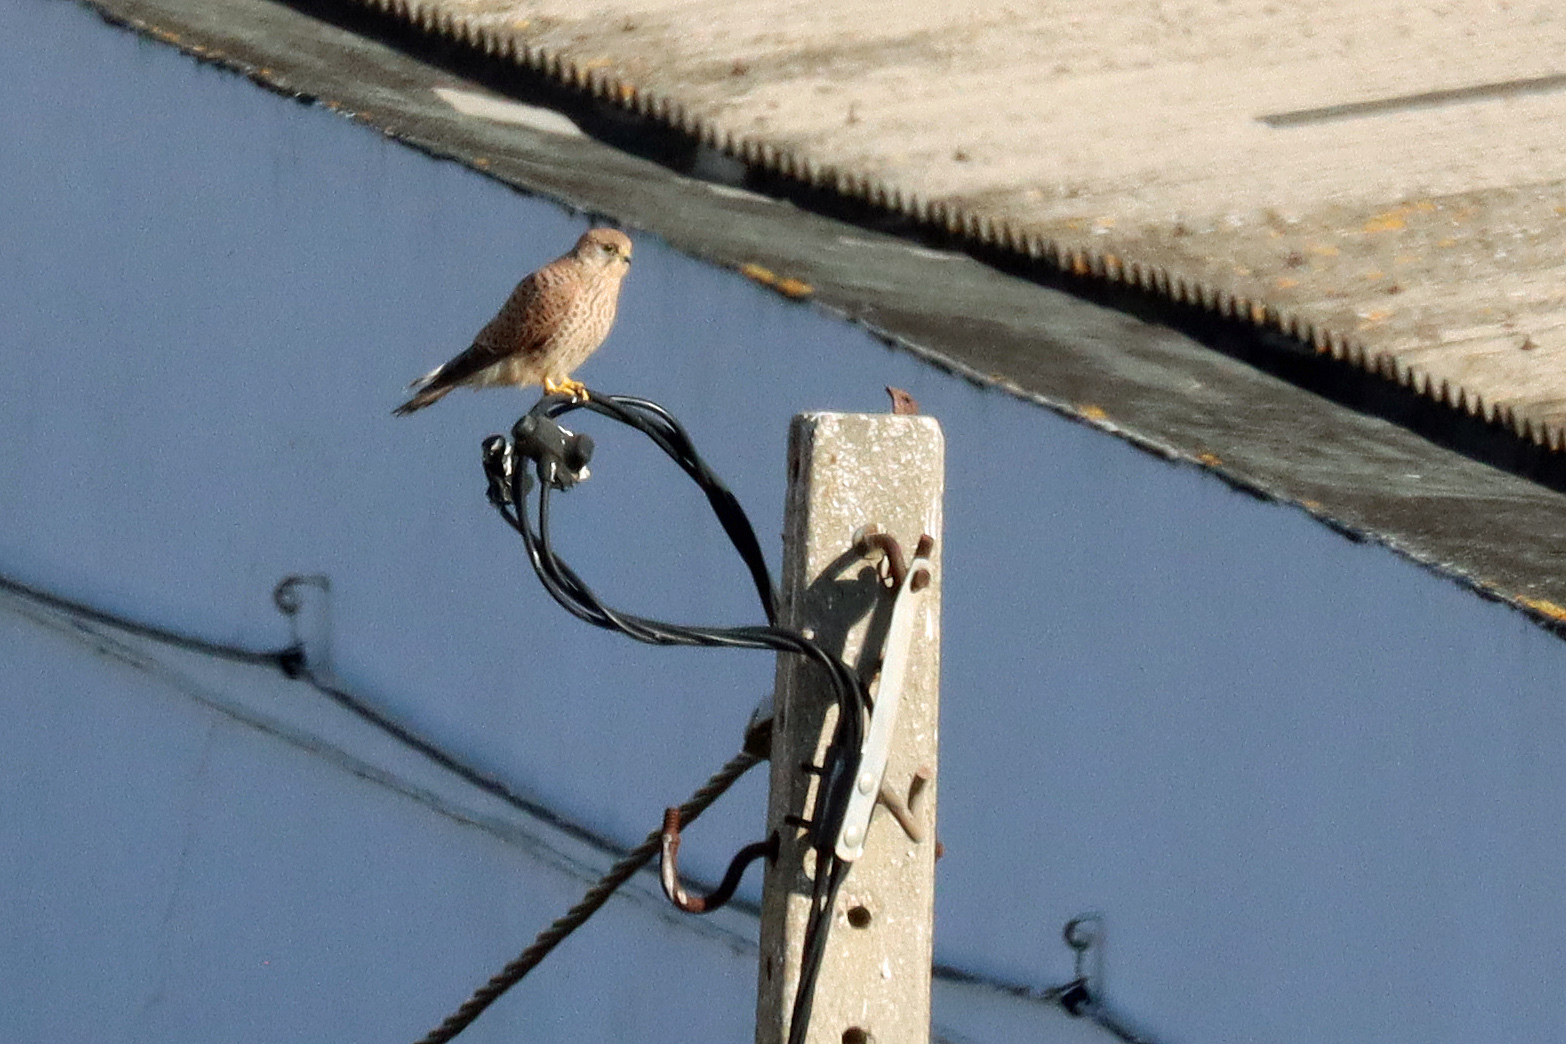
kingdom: Animalia
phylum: Chordata
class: Aves
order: Falconiformes
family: Falconidae
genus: Falco
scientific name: Falco tinnunculus
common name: Common kestrel
